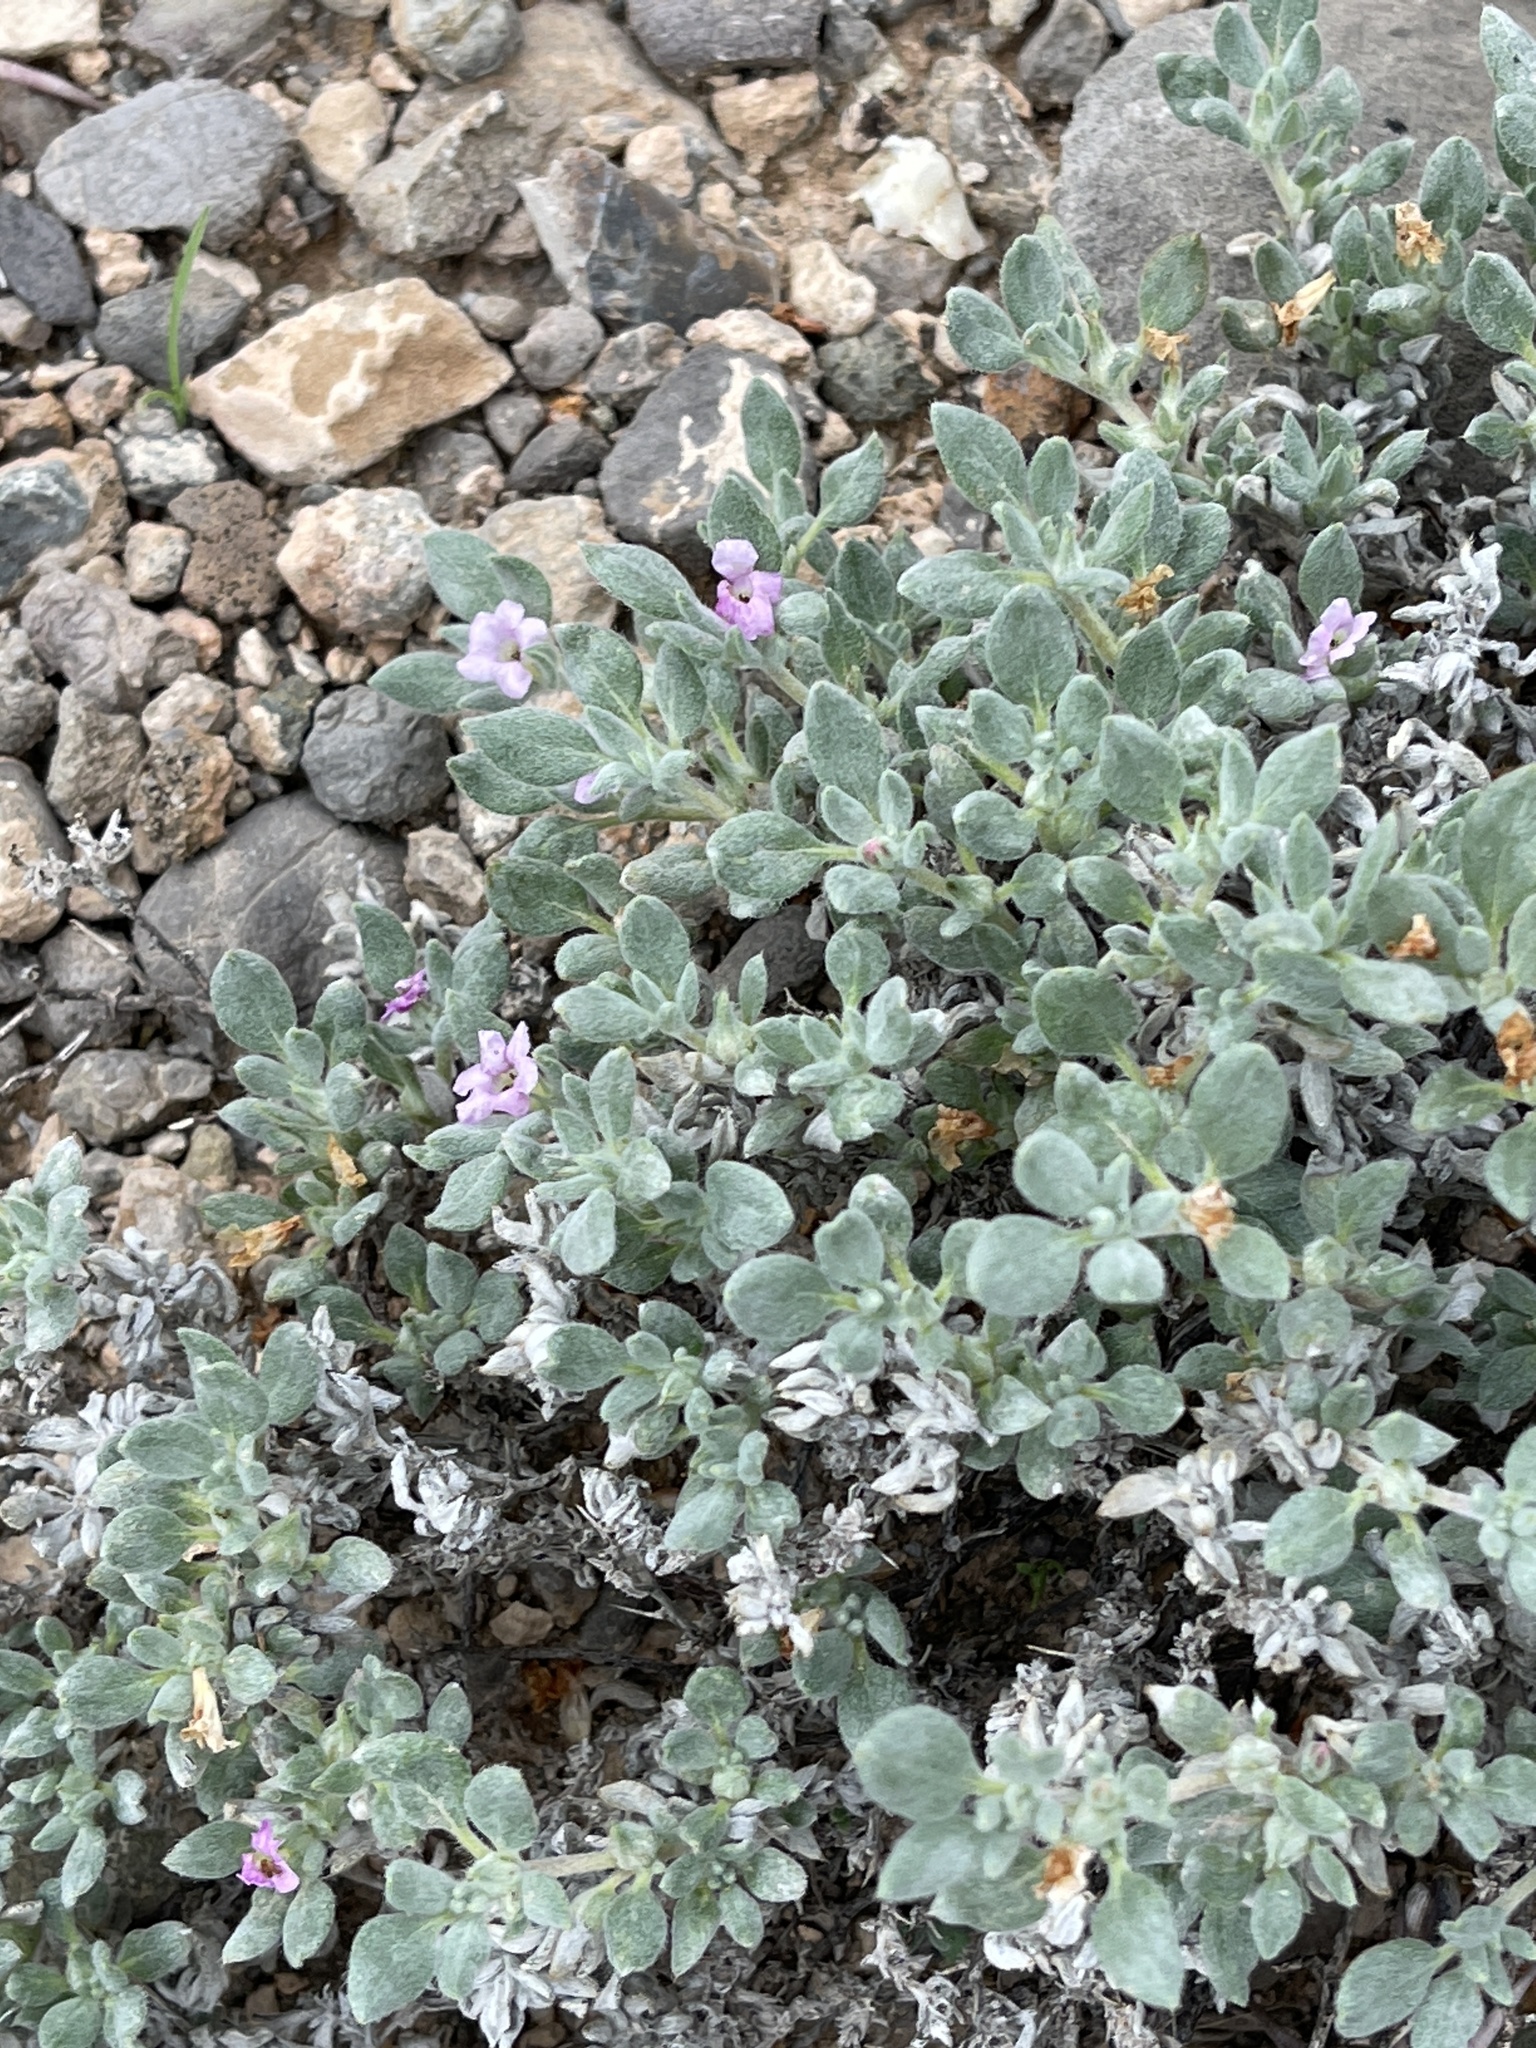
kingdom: Plantae
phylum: Tracheophyta
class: Magnoliopsida
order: Boraginales
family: Ehretiaceae
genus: Tiquilia
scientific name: Tiquilia canescens
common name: Hairy tiquilia
